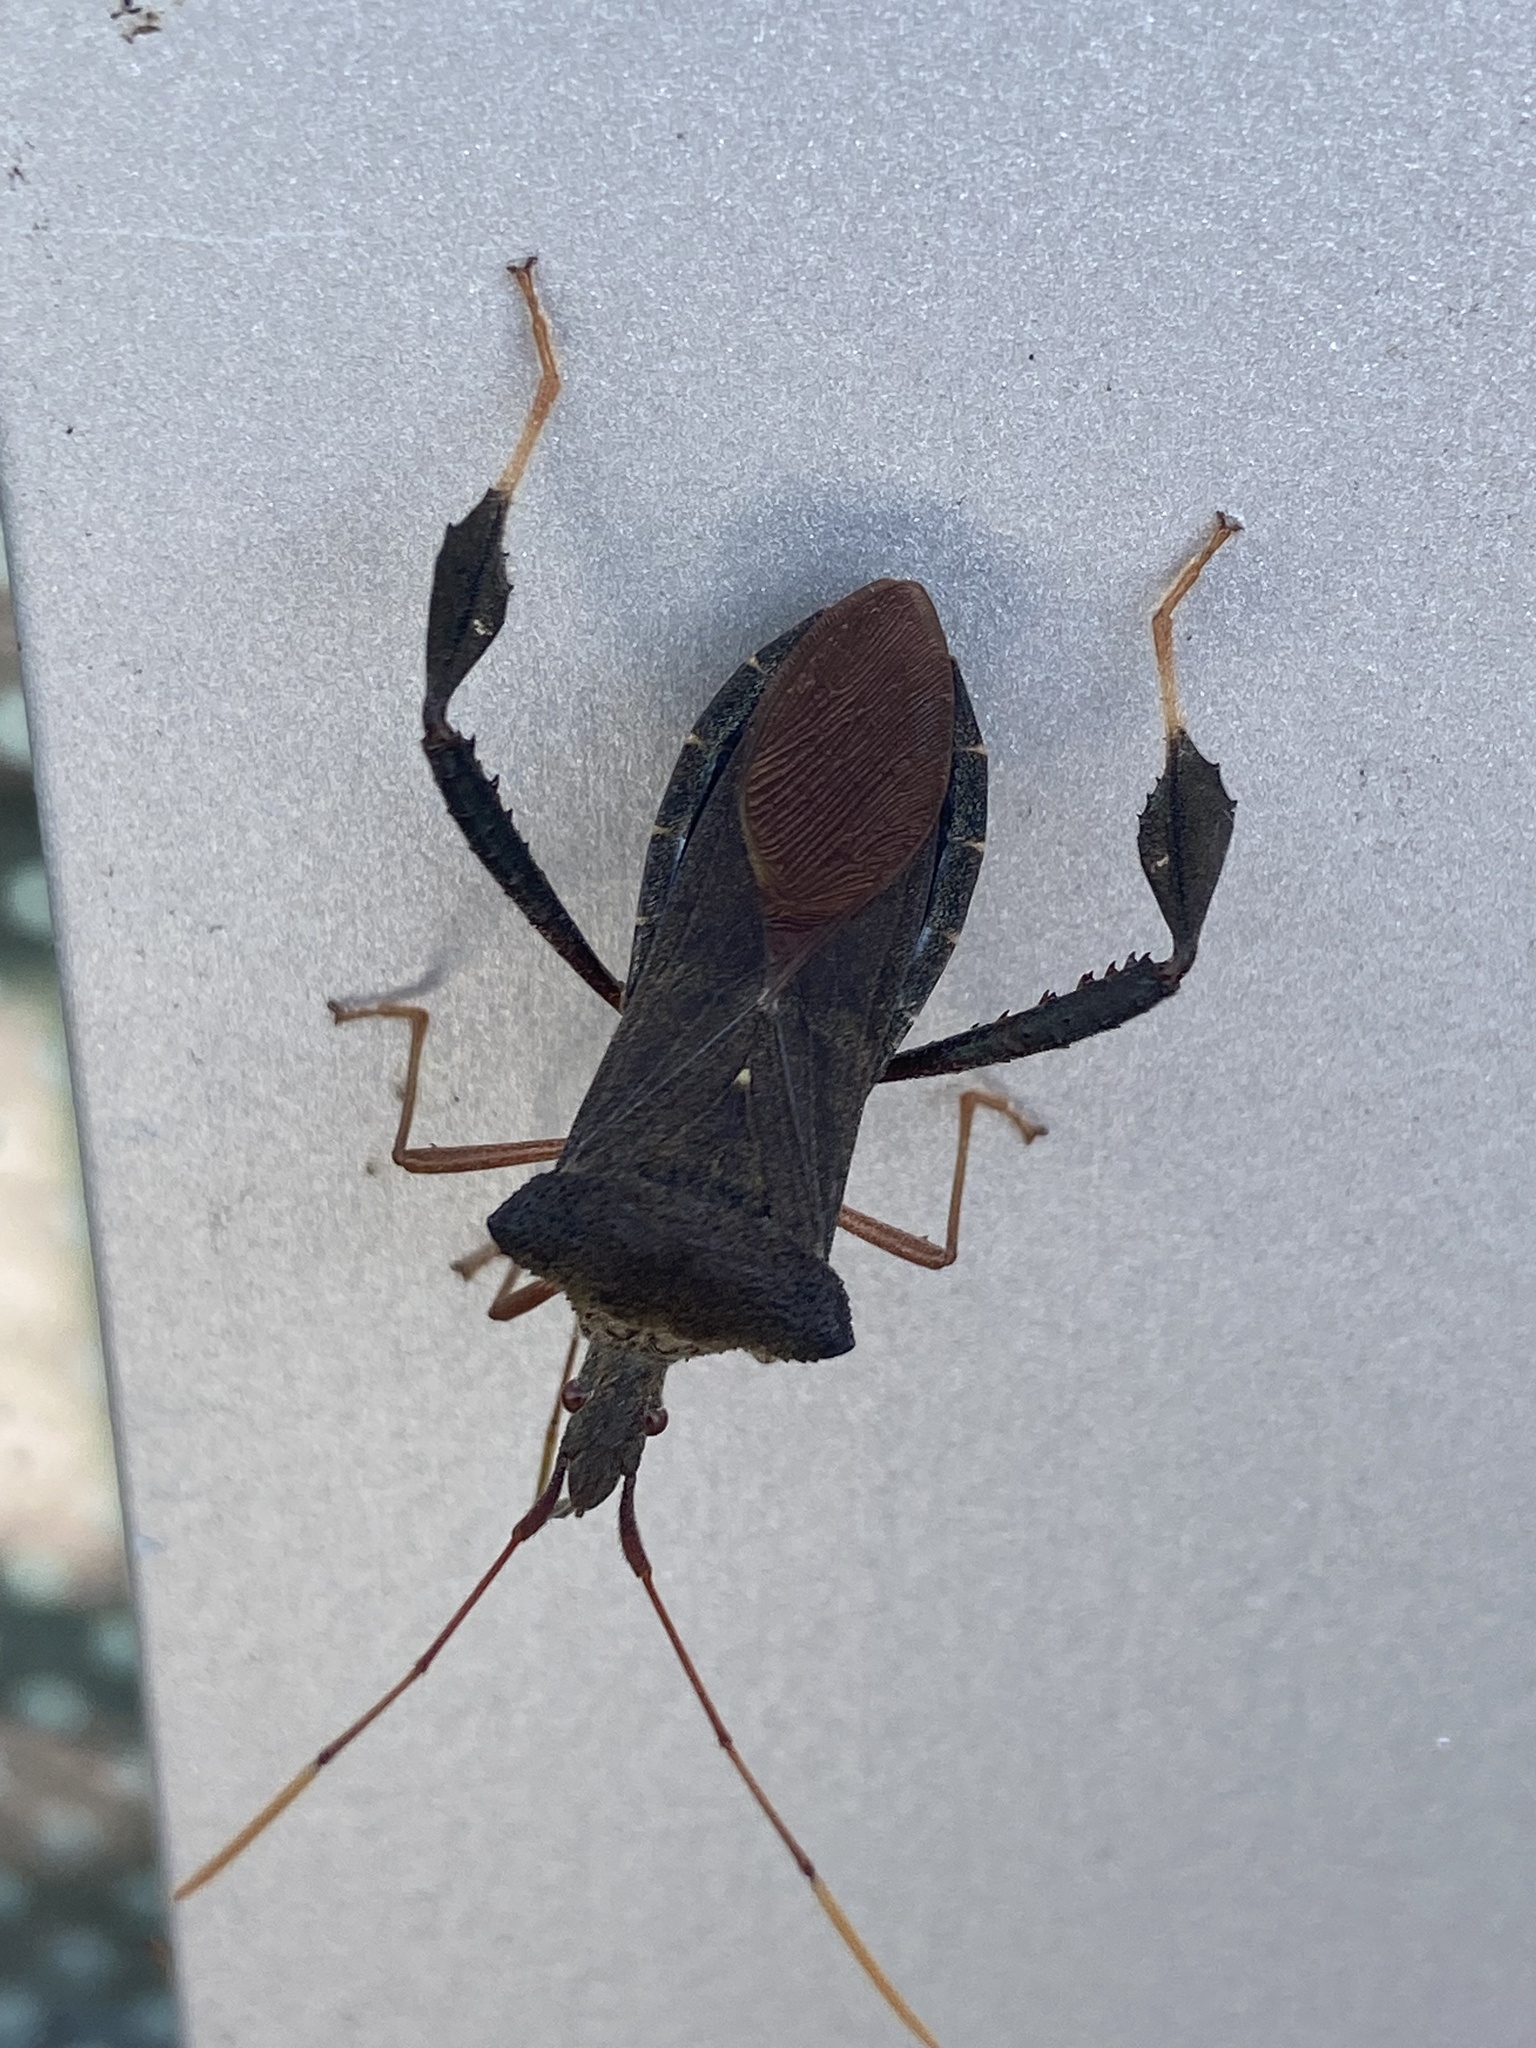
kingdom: Animalia
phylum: Arthropoda
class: Insecta
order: Hemiptera
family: Coreidae
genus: Leptoglossus
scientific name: Leptoglossus fulvicornis
